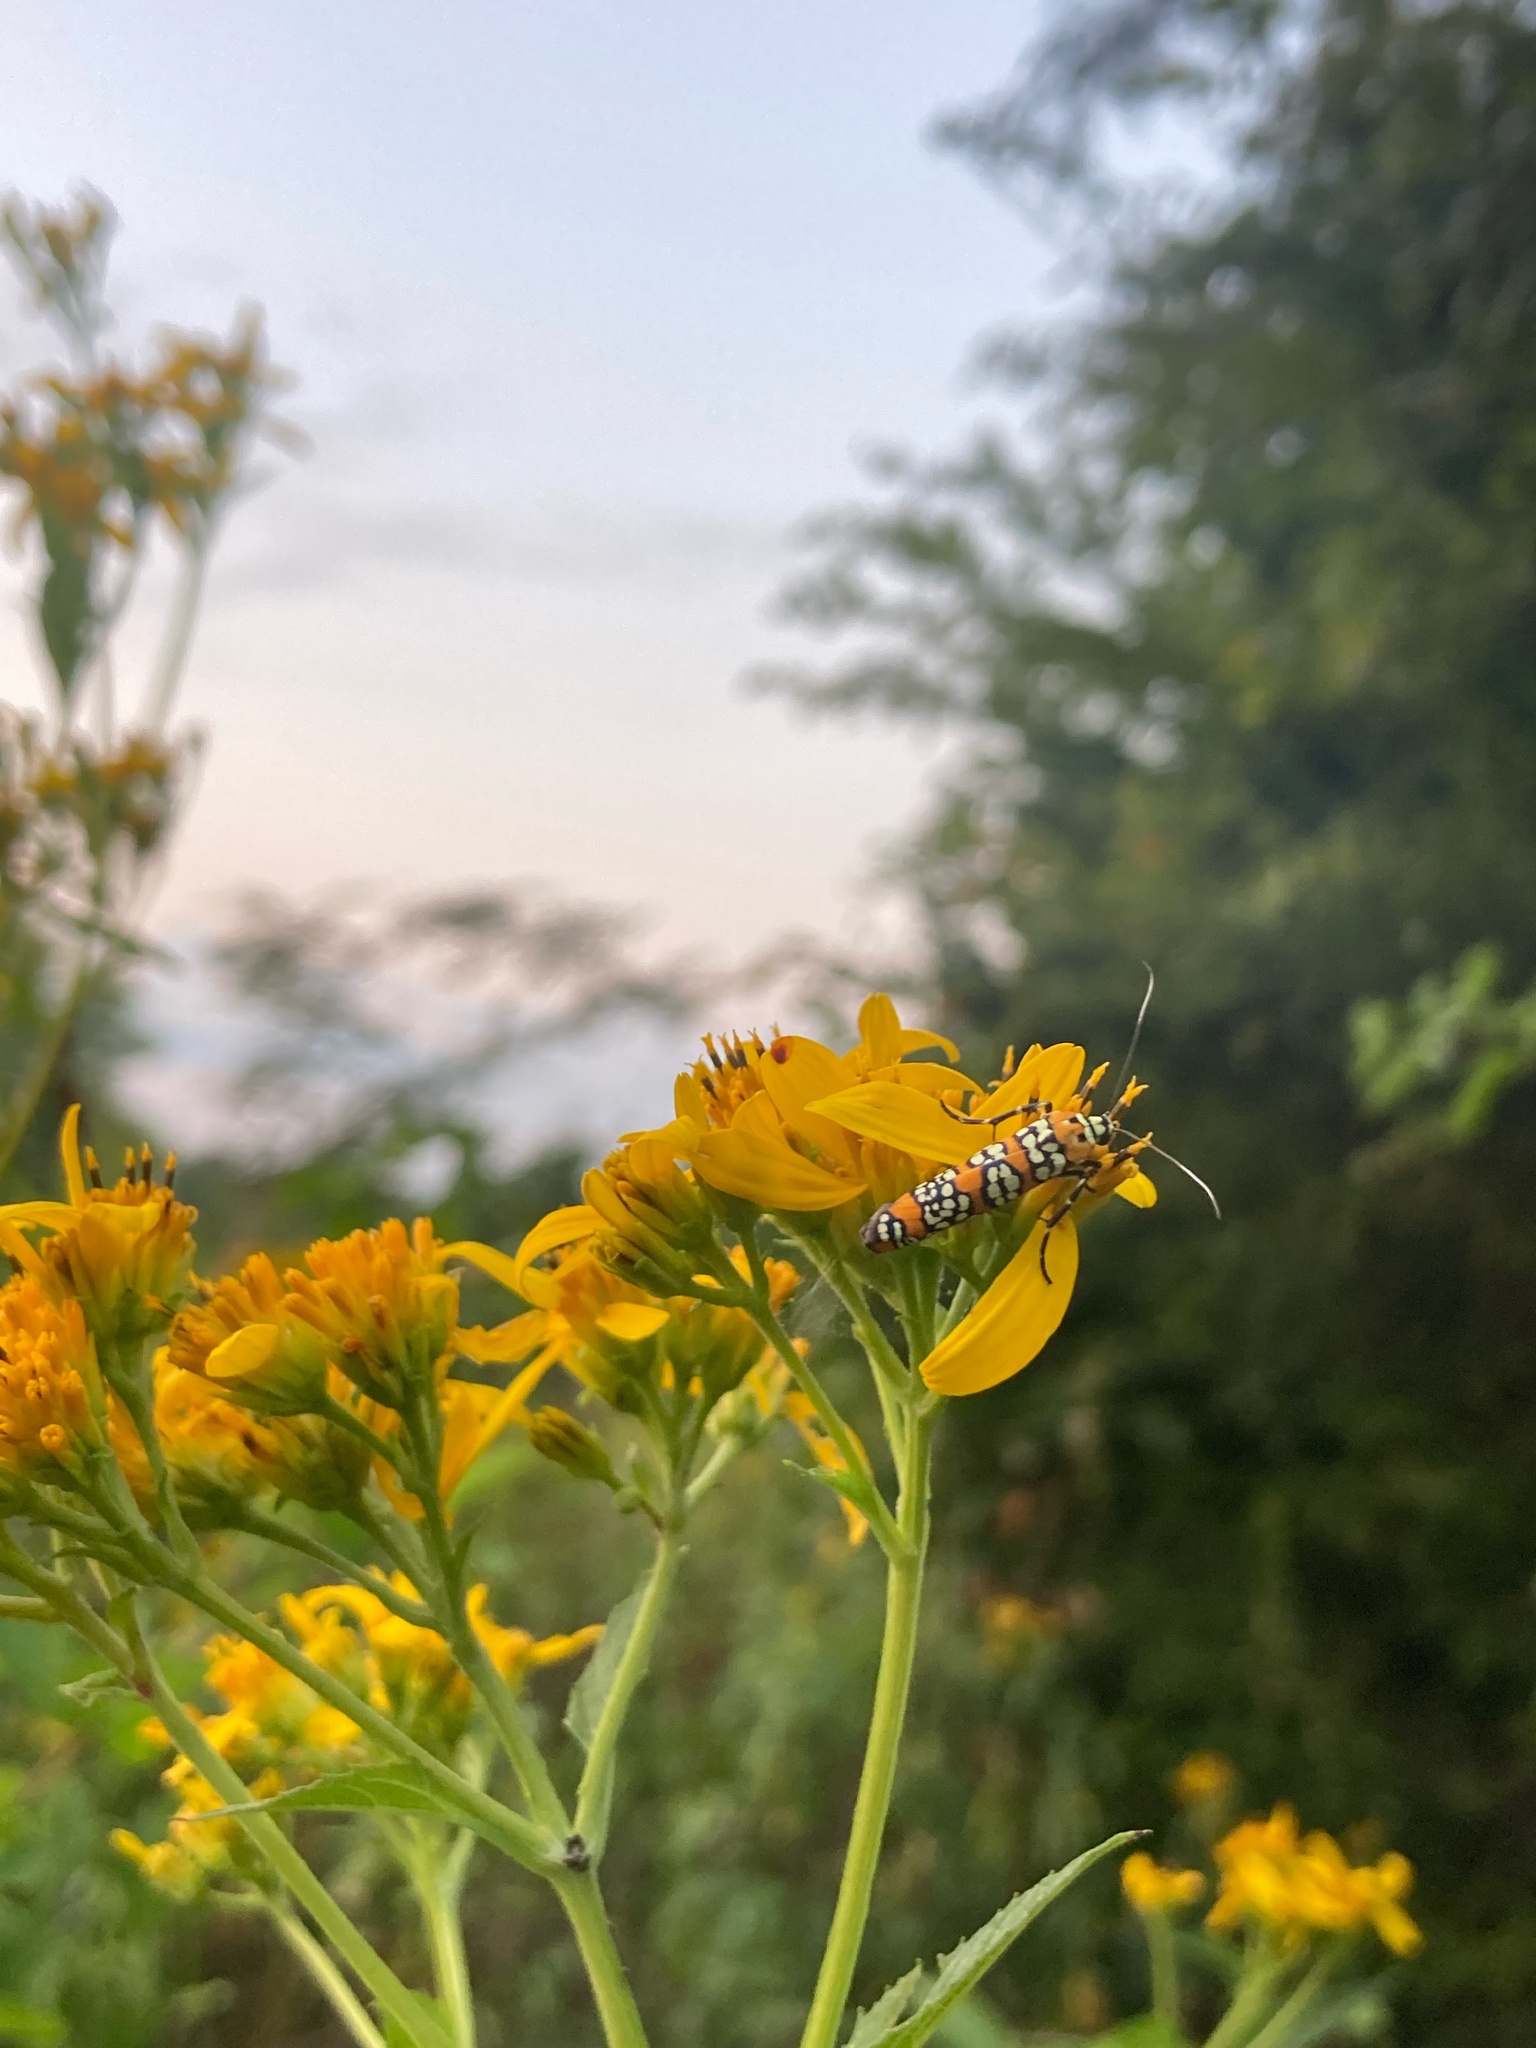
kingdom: Animalia
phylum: Arthropoda
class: Insecta
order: Lepidoptera
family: Attevidae
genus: Atteva
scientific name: Atteva punctella
